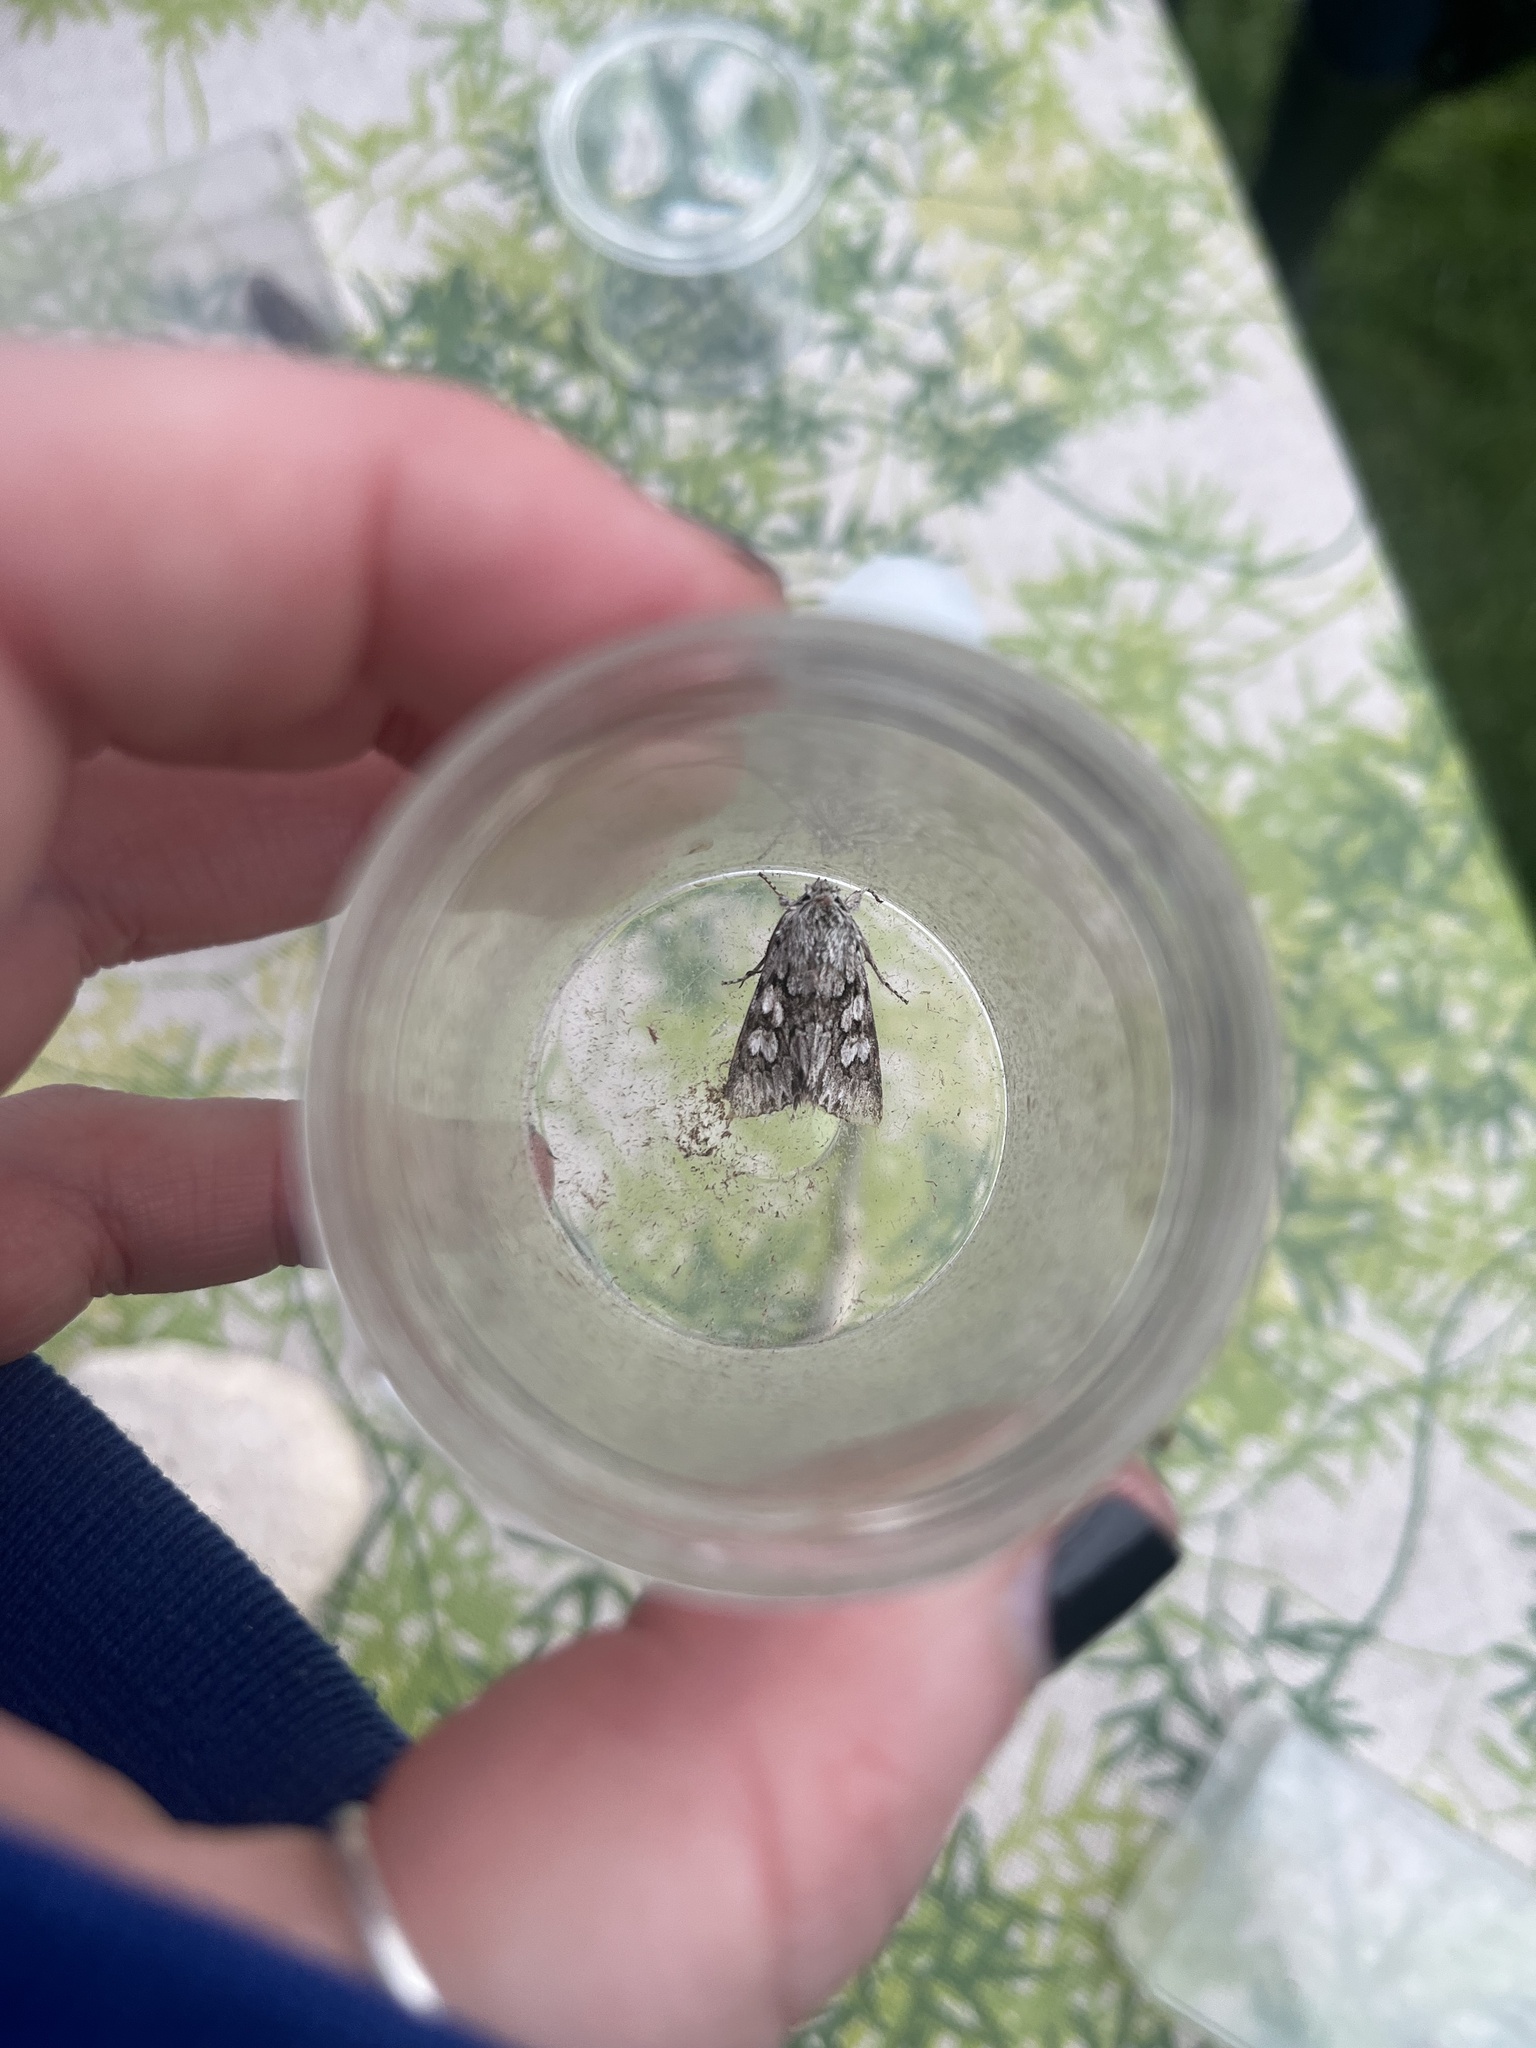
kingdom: Animalia
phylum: Arthropoda
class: Insecta
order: Lepidoptera
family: Noctuidae
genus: Xylocampa
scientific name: Xylocampa areola
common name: Early grey
